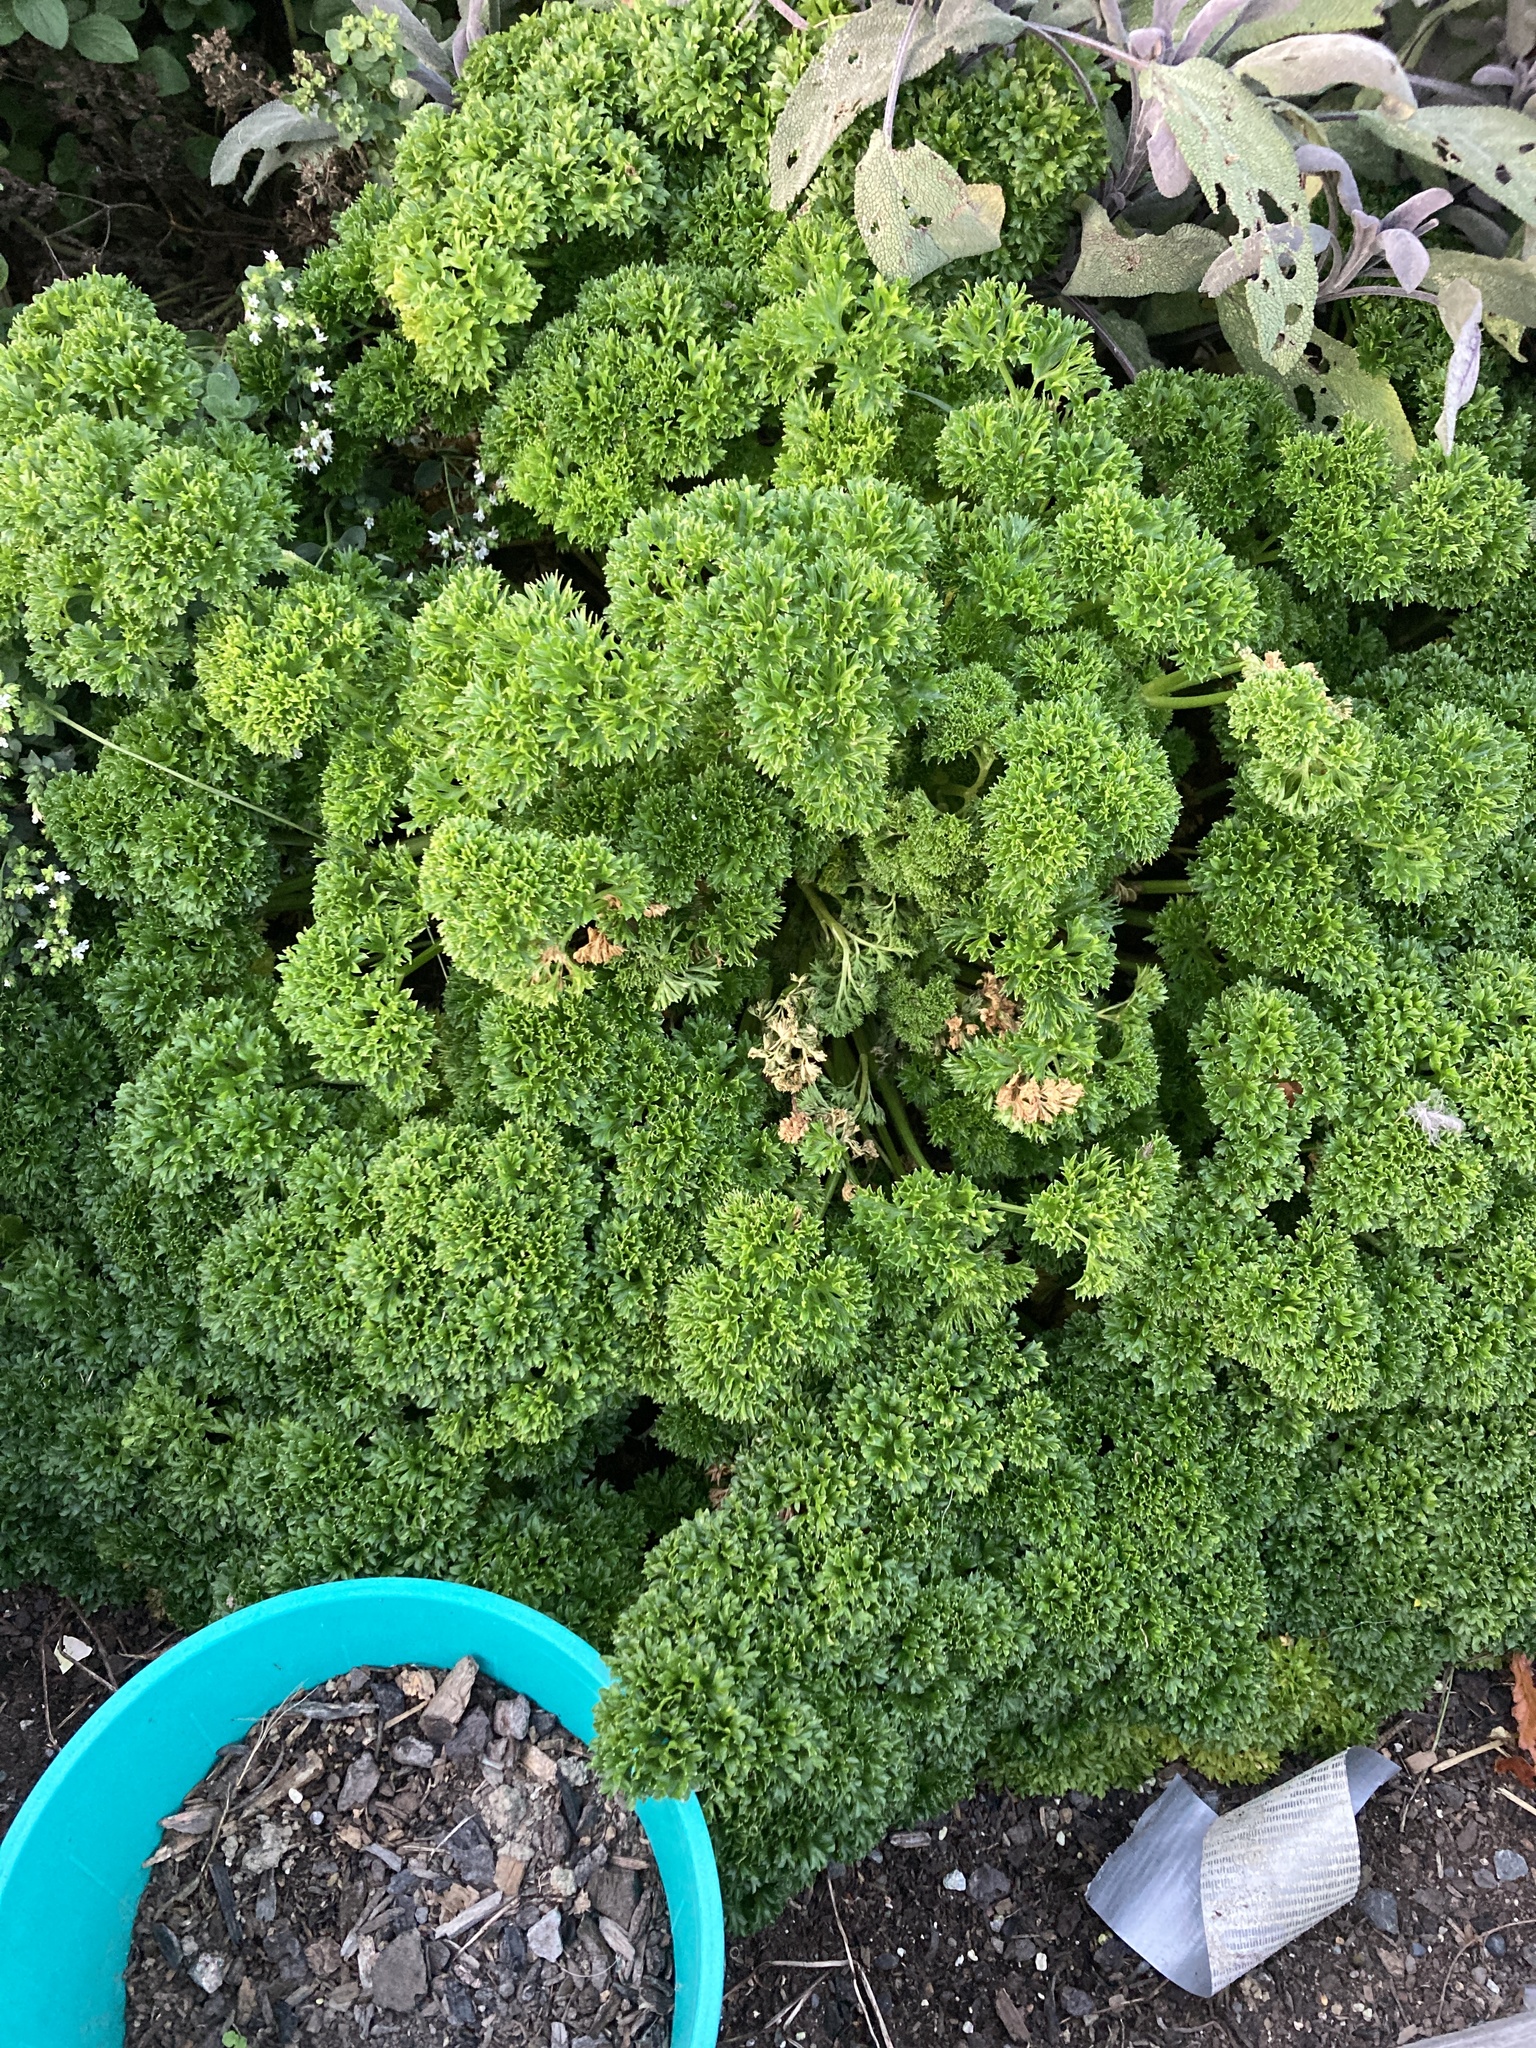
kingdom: Plantae
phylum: Tracheophyta
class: Magnoliopsida
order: Apiales
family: Apiaceae
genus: Petroselinum
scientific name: Petroselinum crispum
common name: Parsley
